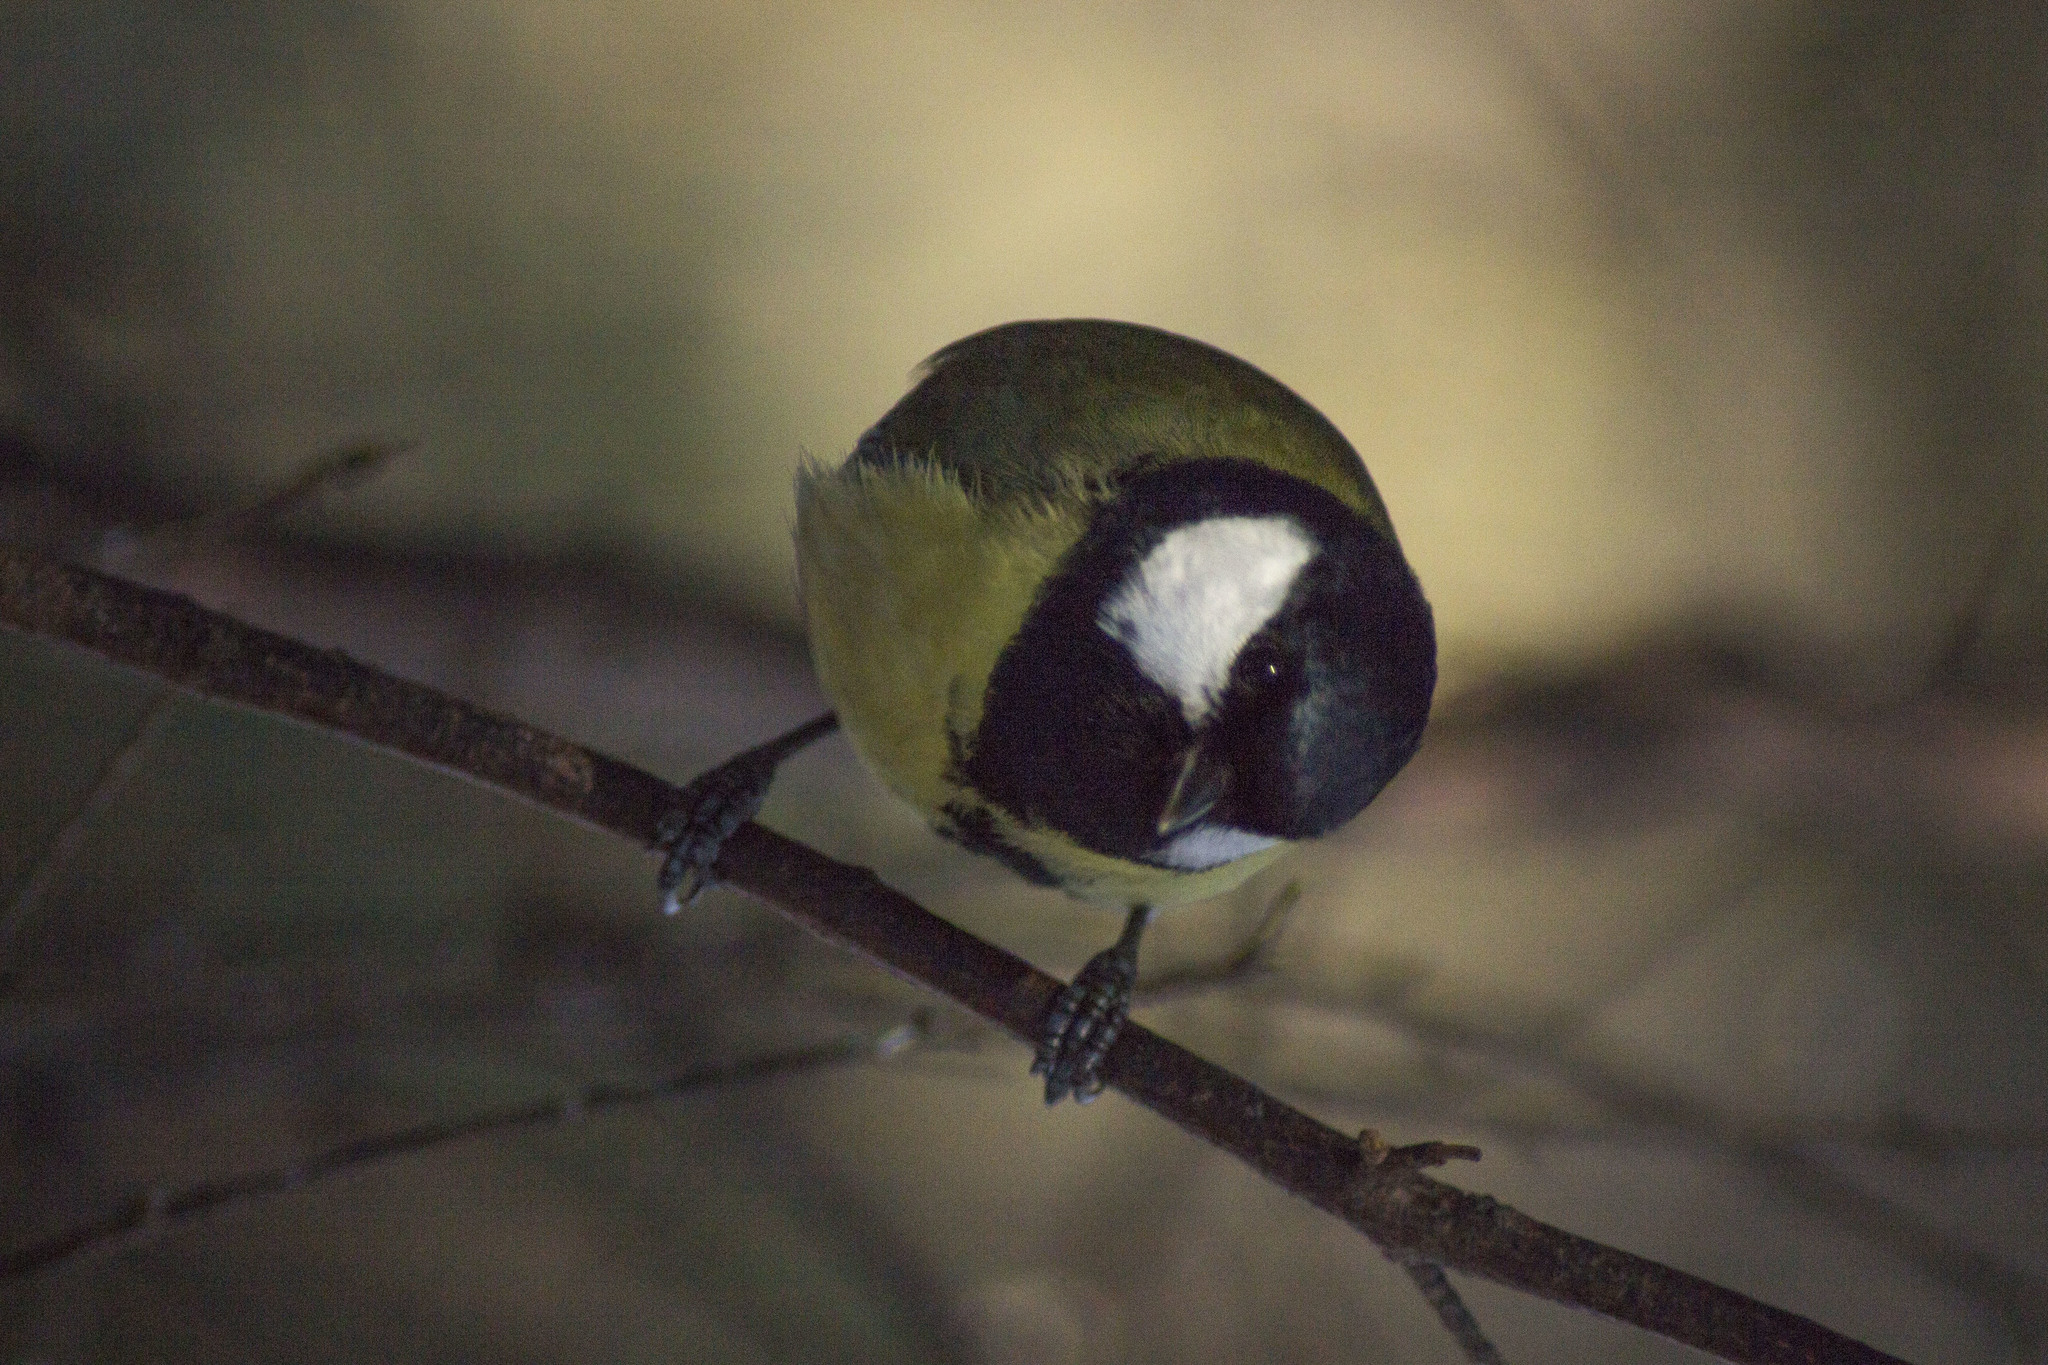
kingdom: Animalia
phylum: Chordata
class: Aves
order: Passeriformes
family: Paridae
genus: Parus
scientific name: Parus major
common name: Great tit
